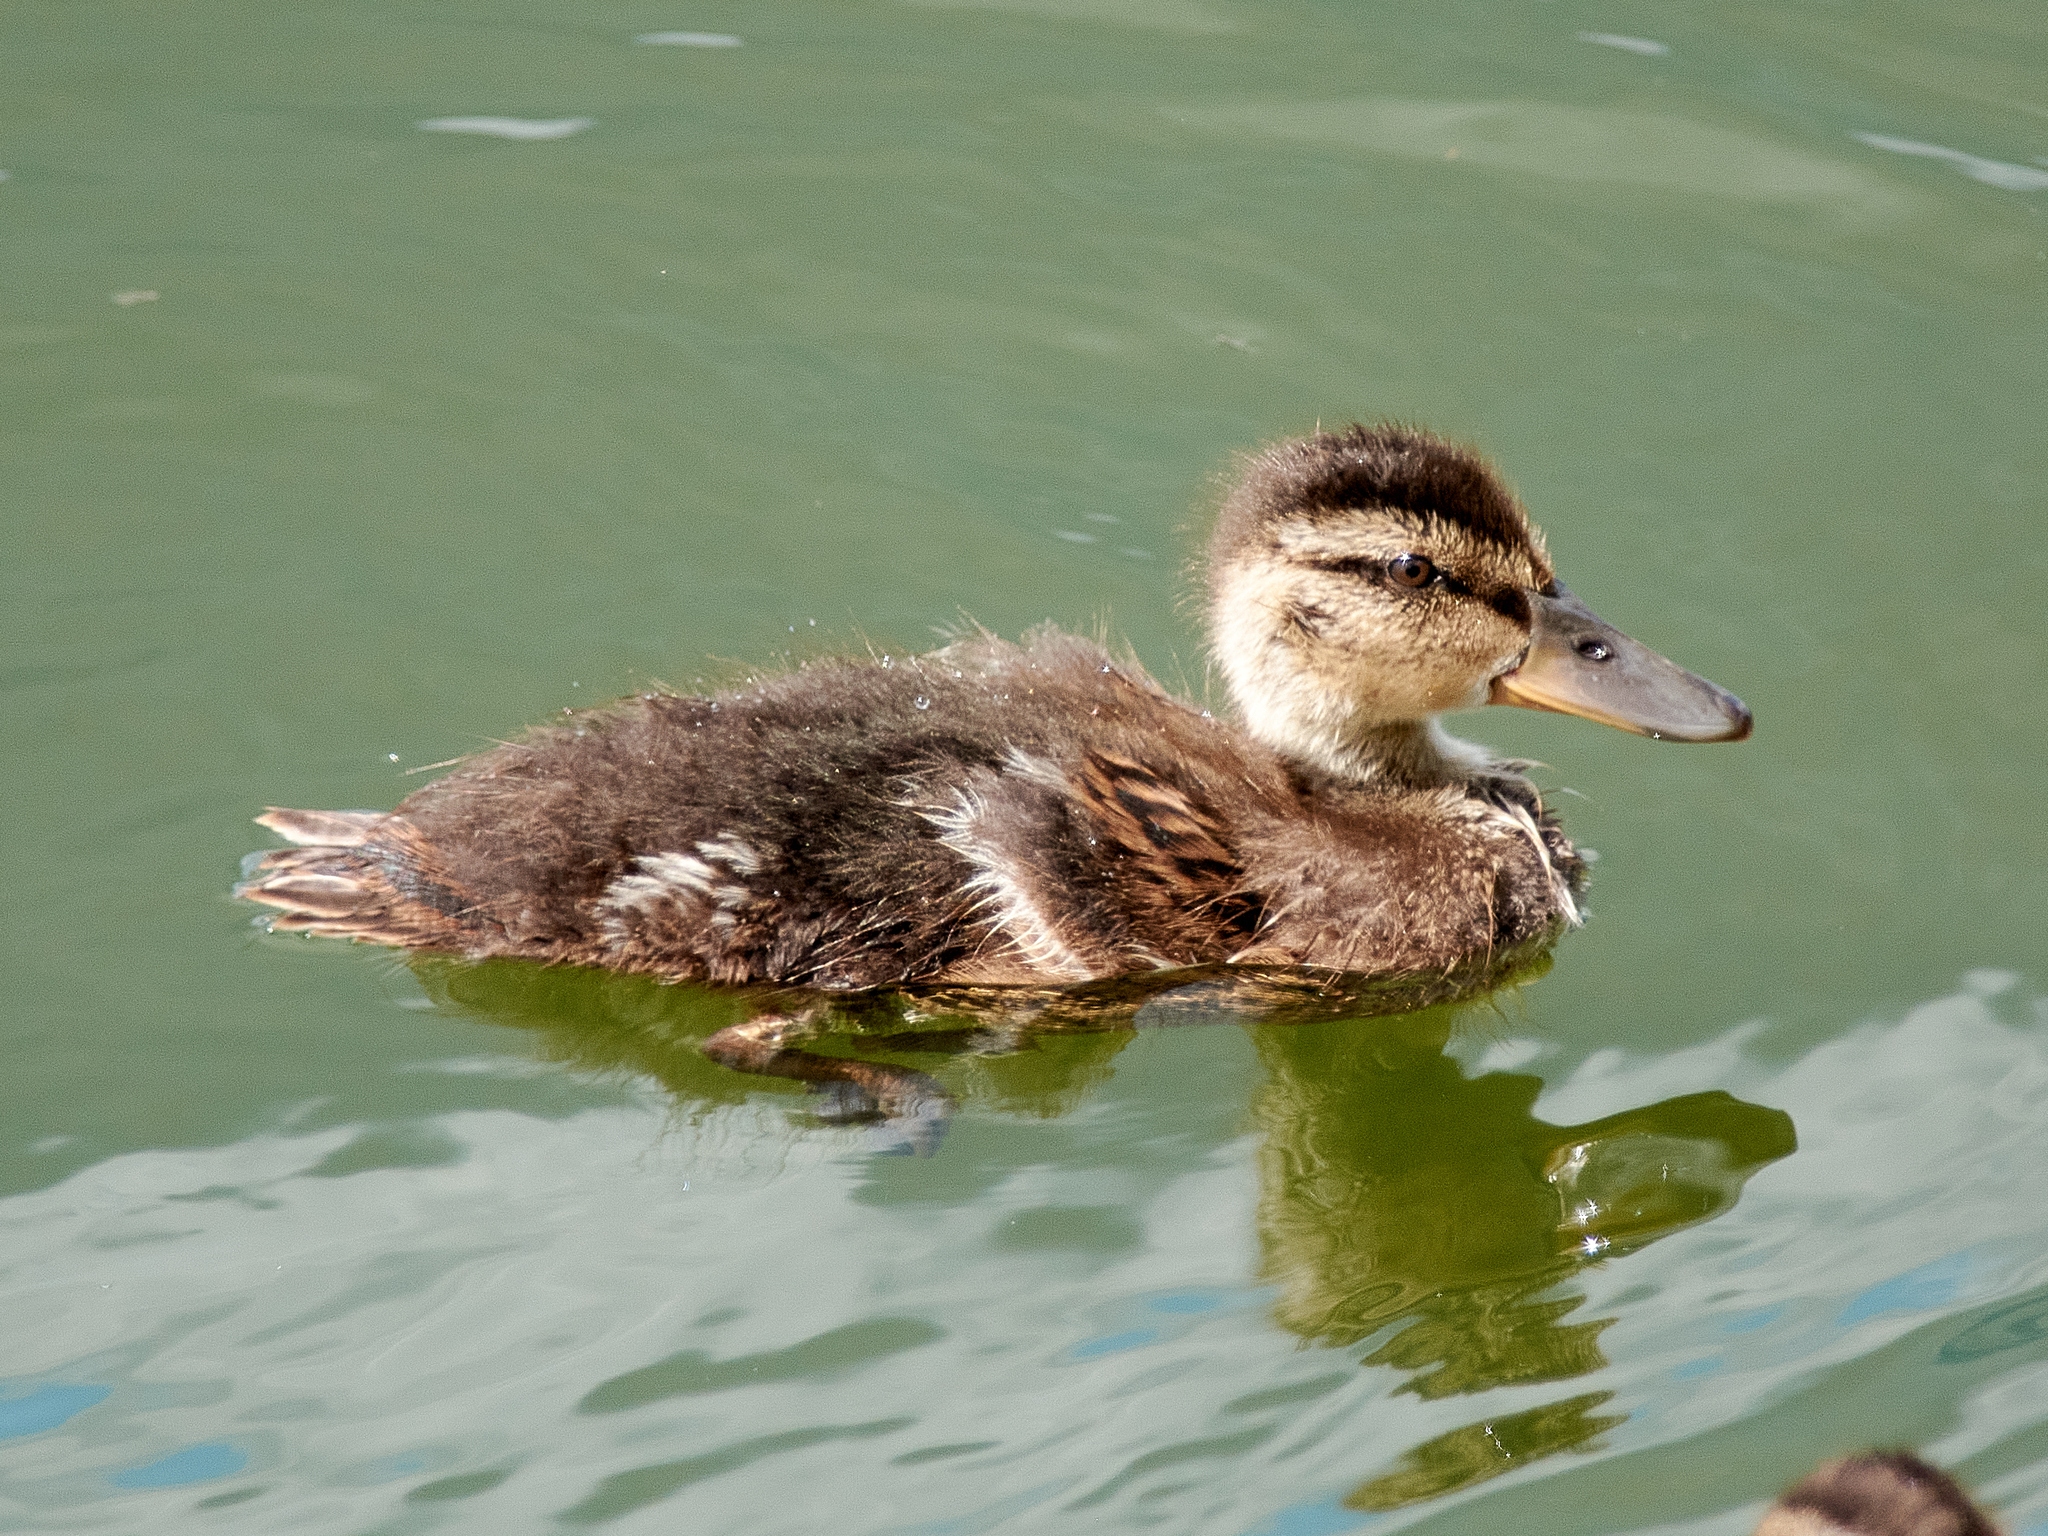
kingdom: Animalia
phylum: Chordata
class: Aves
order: Anseriformes
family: Anatidae
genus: Anas
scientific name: Anas platyrhynchos
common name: Mallard
